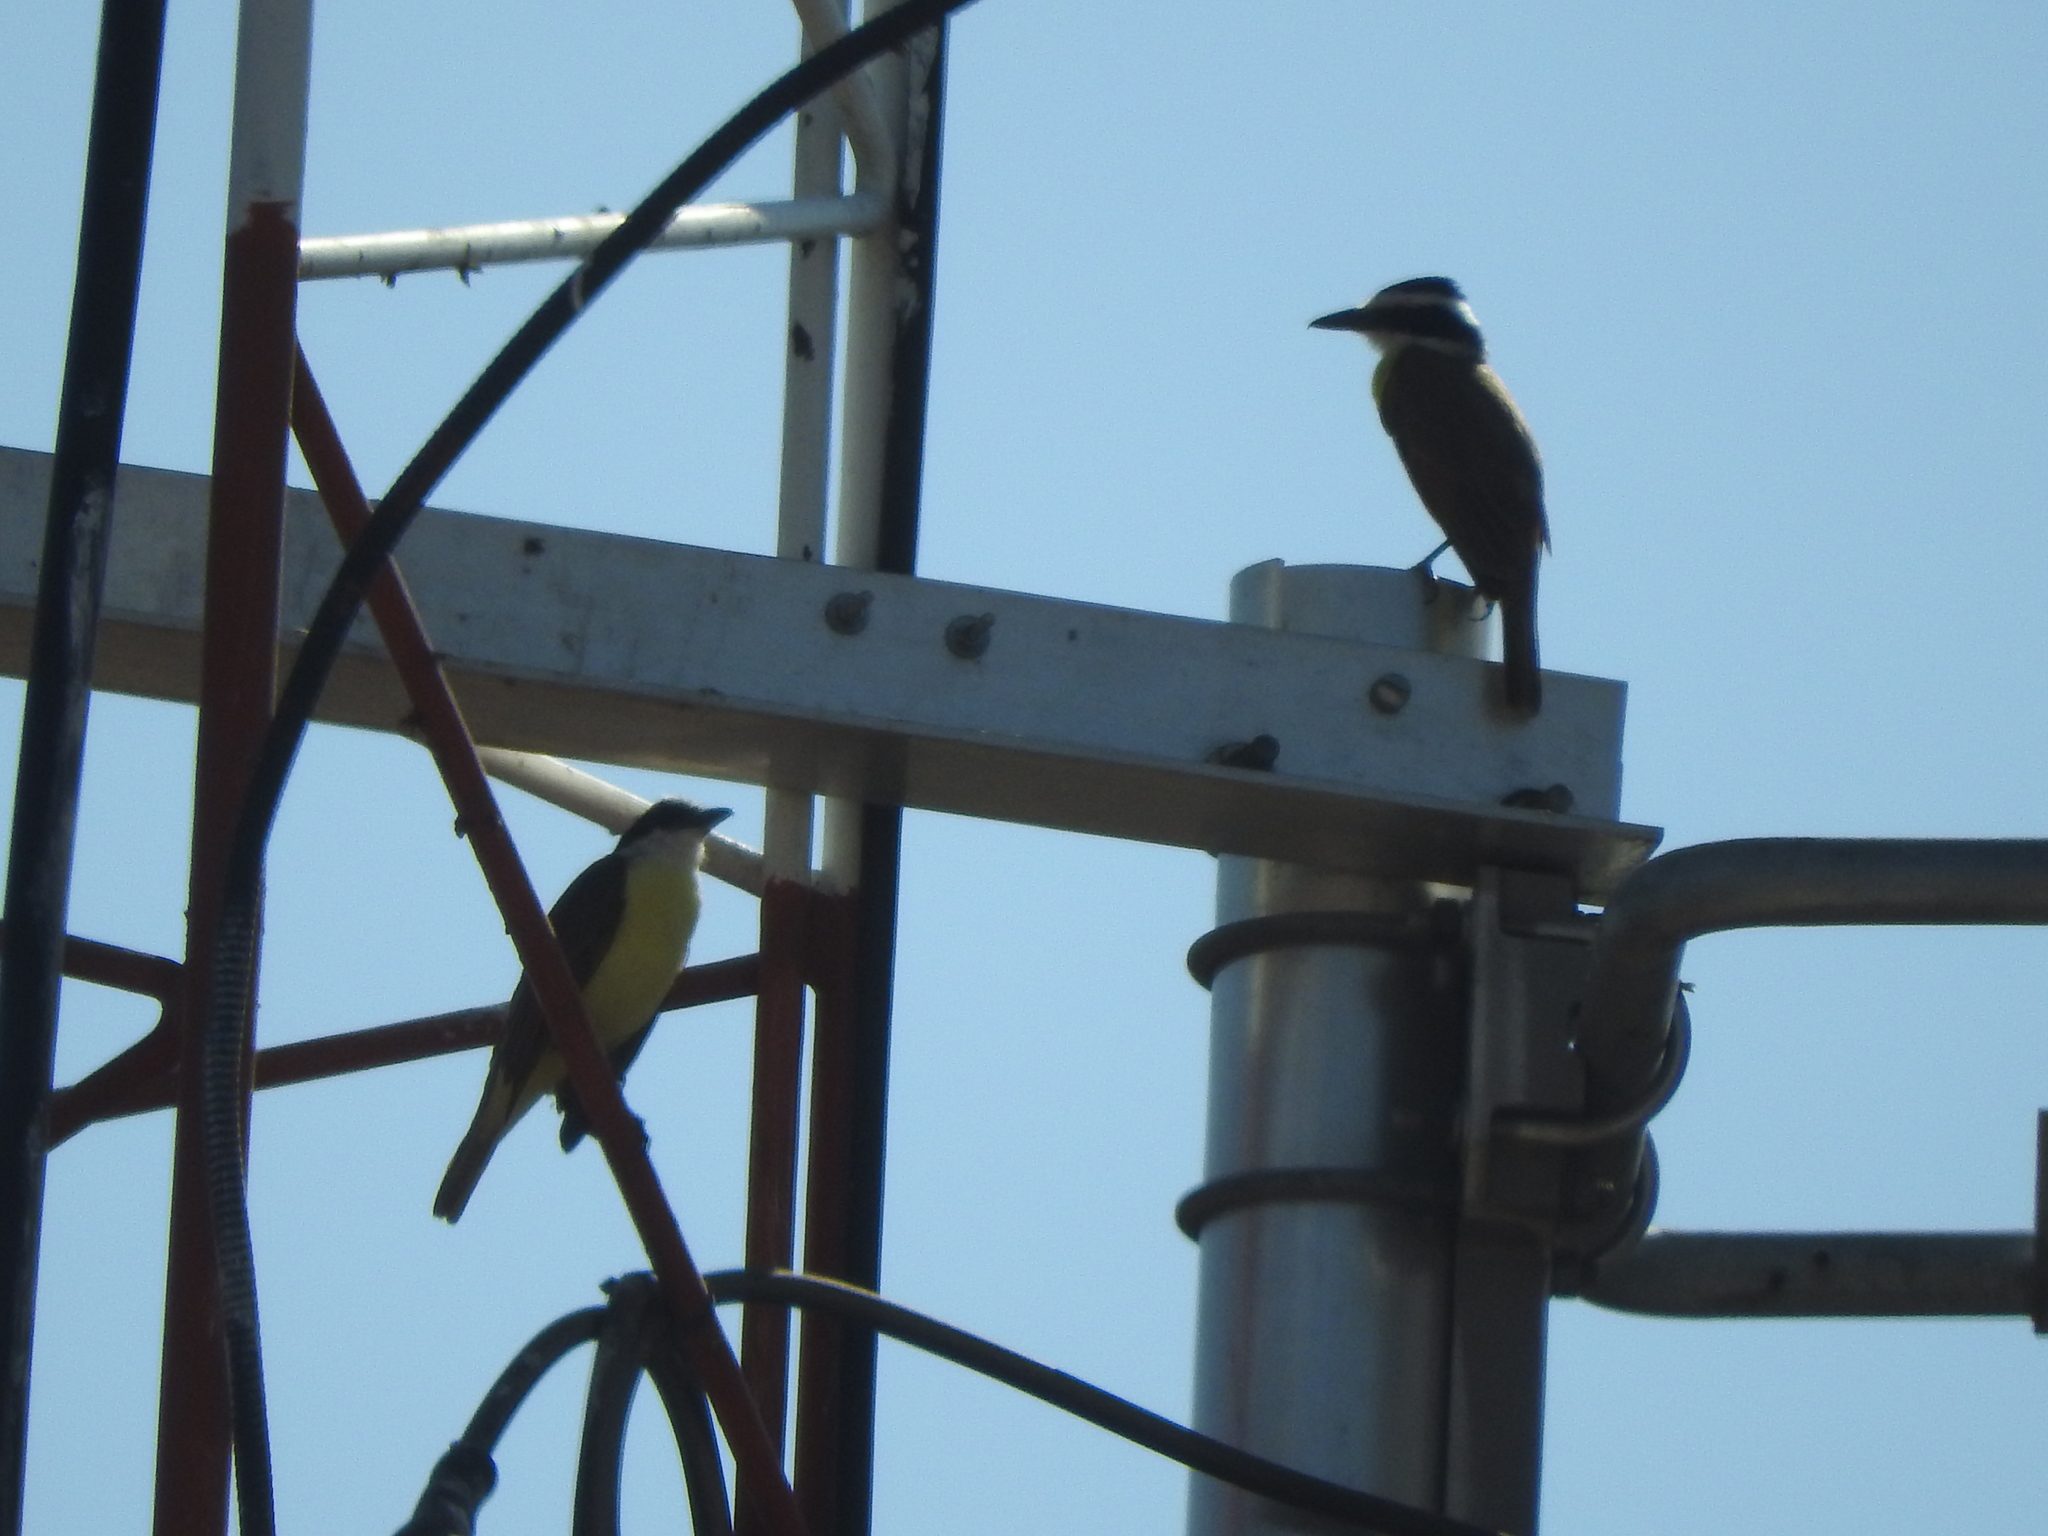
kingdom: Animalia
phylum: Chordata
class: Aves
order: Passeriformes
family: Tyrannidae
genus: Pitangus
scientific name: Pitangus sulphuratus
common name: Great kiskadee
